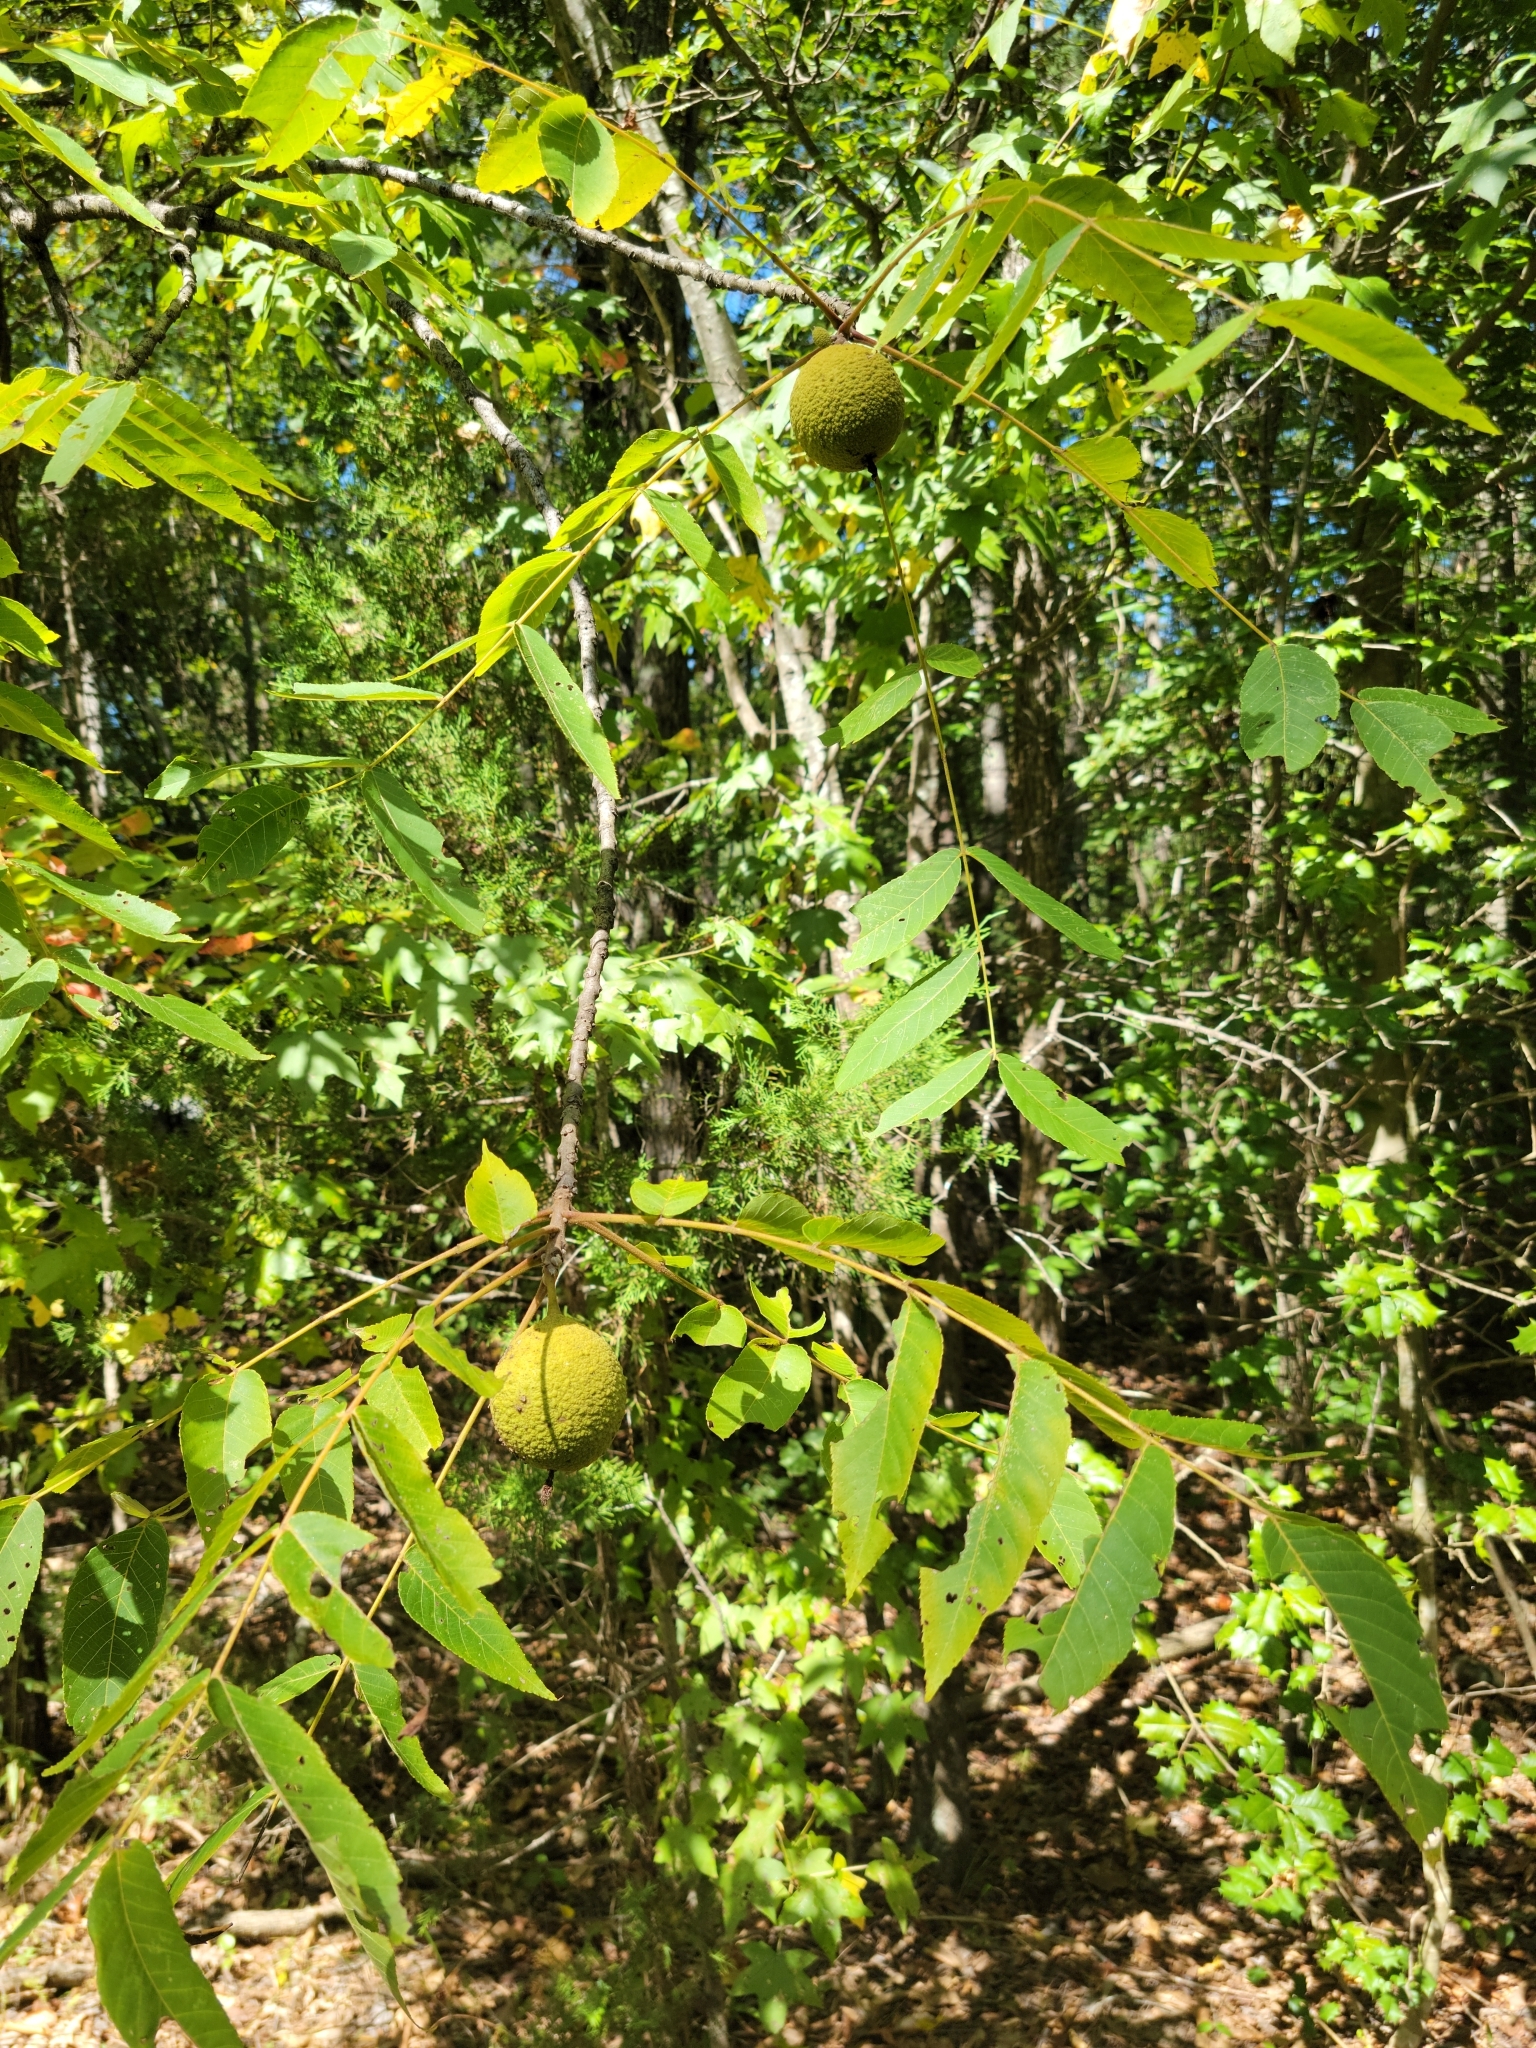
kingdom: Plantae
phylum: Tracheophyta
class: Magnoliopsida
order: Fagales
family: Juglandaceae
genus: Juglans
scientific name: Juglans nigra
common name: Black walnut
